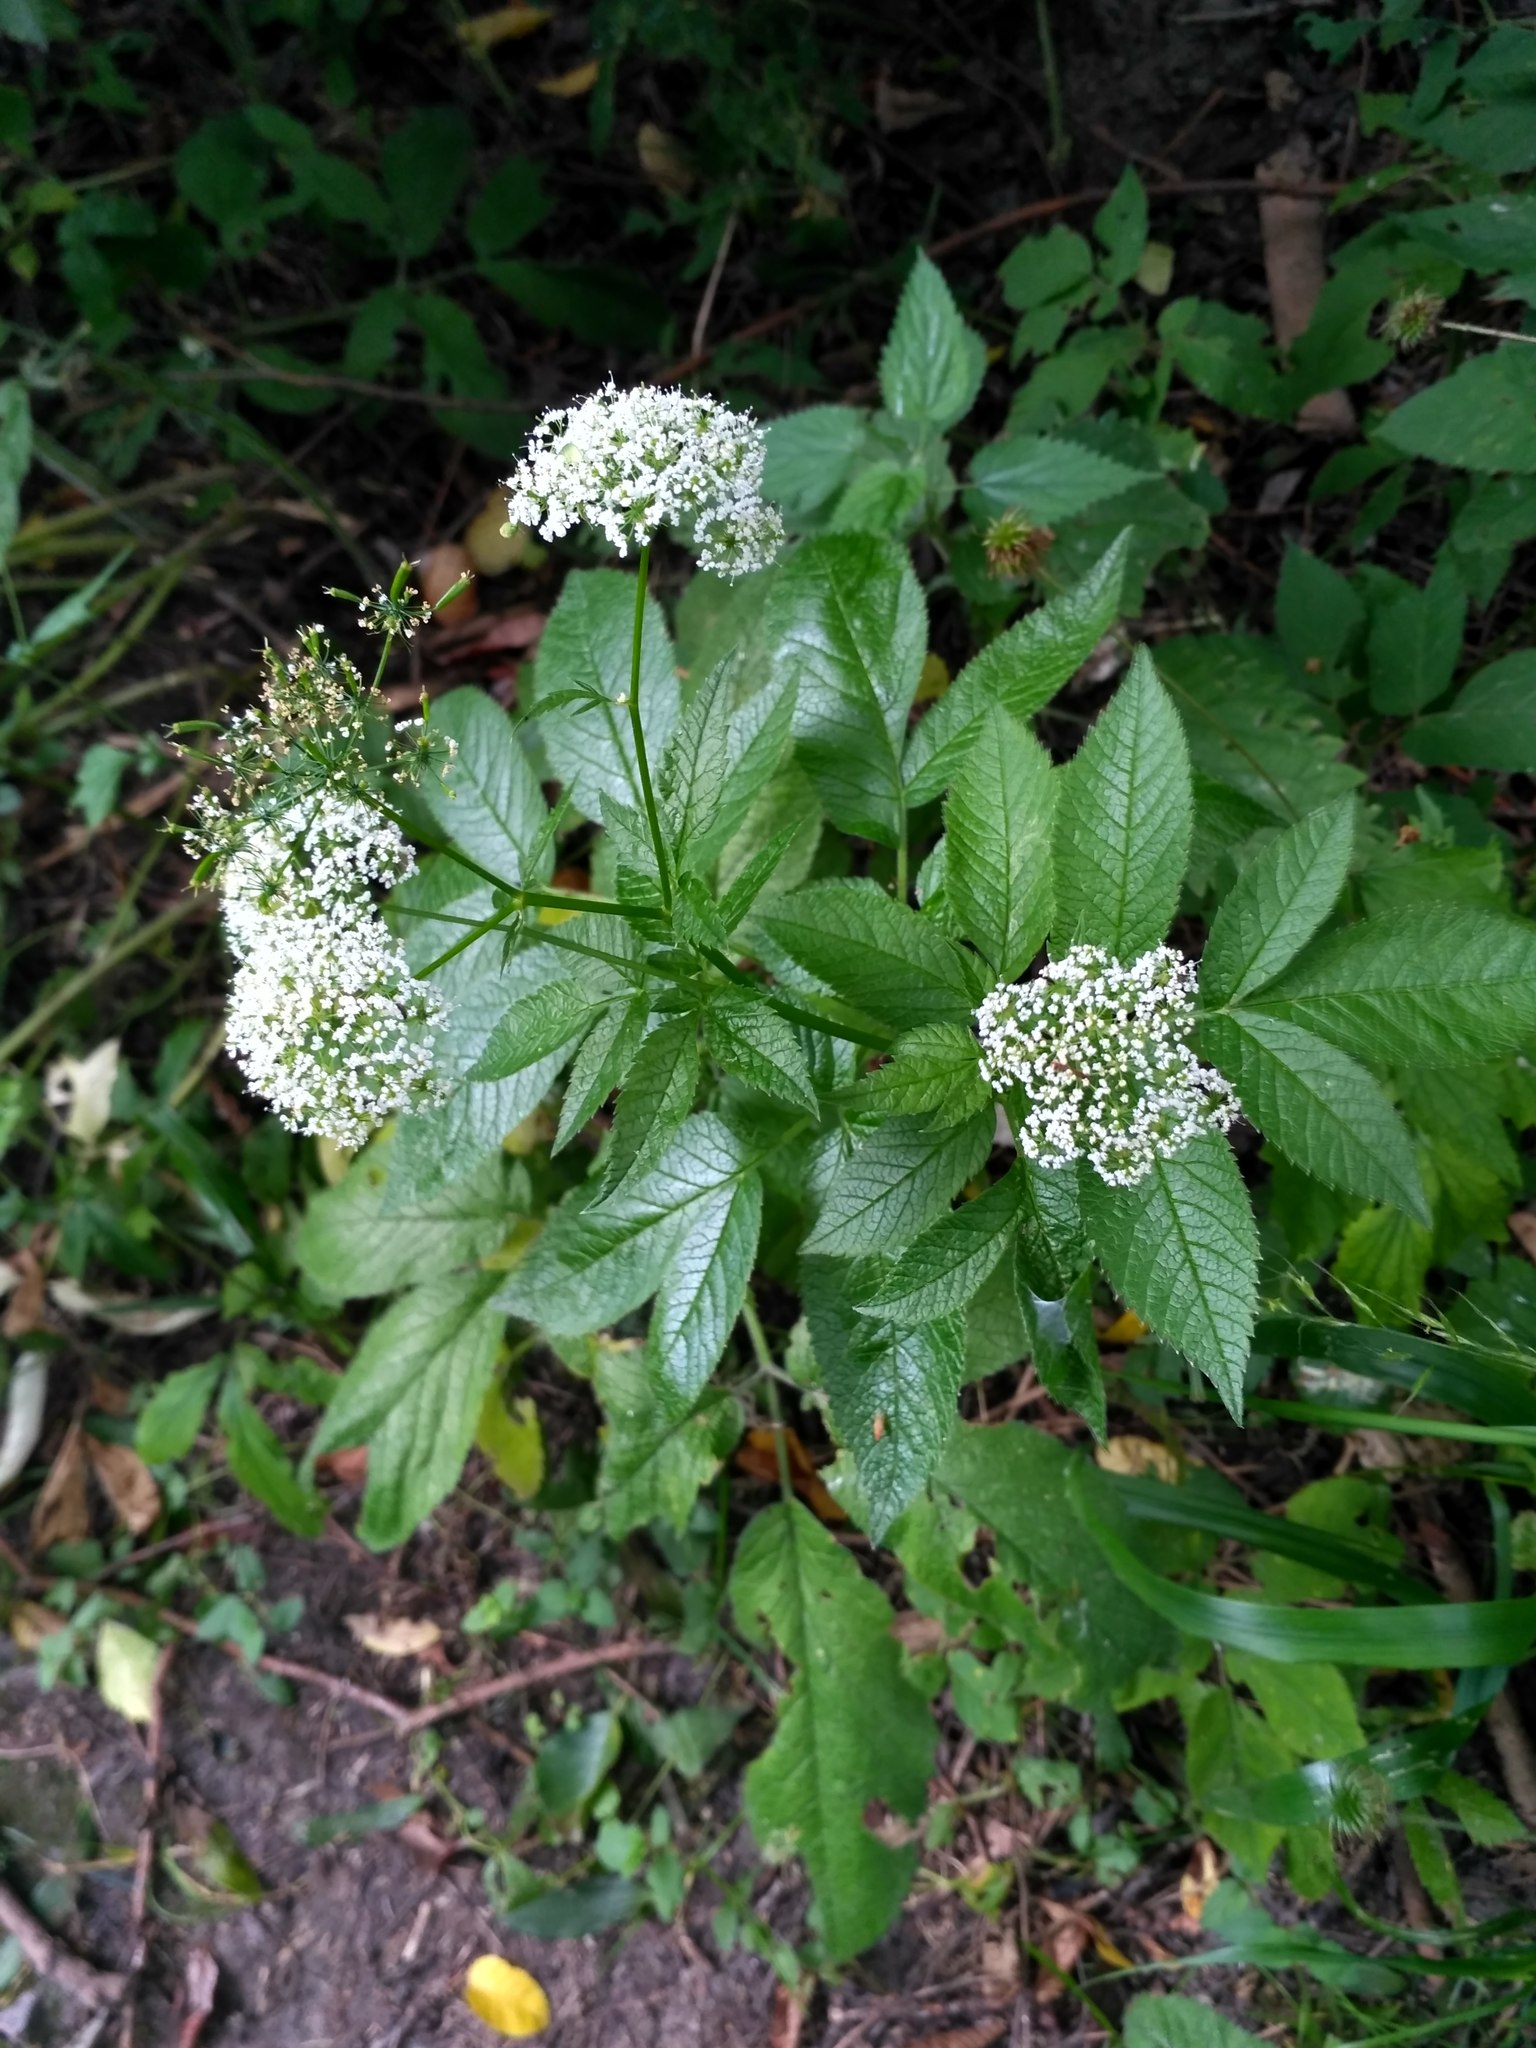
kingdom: Plantae
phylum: Tracheophyta
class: Magnoliopsida
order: Apiales
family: Apiaceae
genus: Chaerophyllum
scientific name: Chaerophyllum aromaticum
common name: Broadleaf chervil
